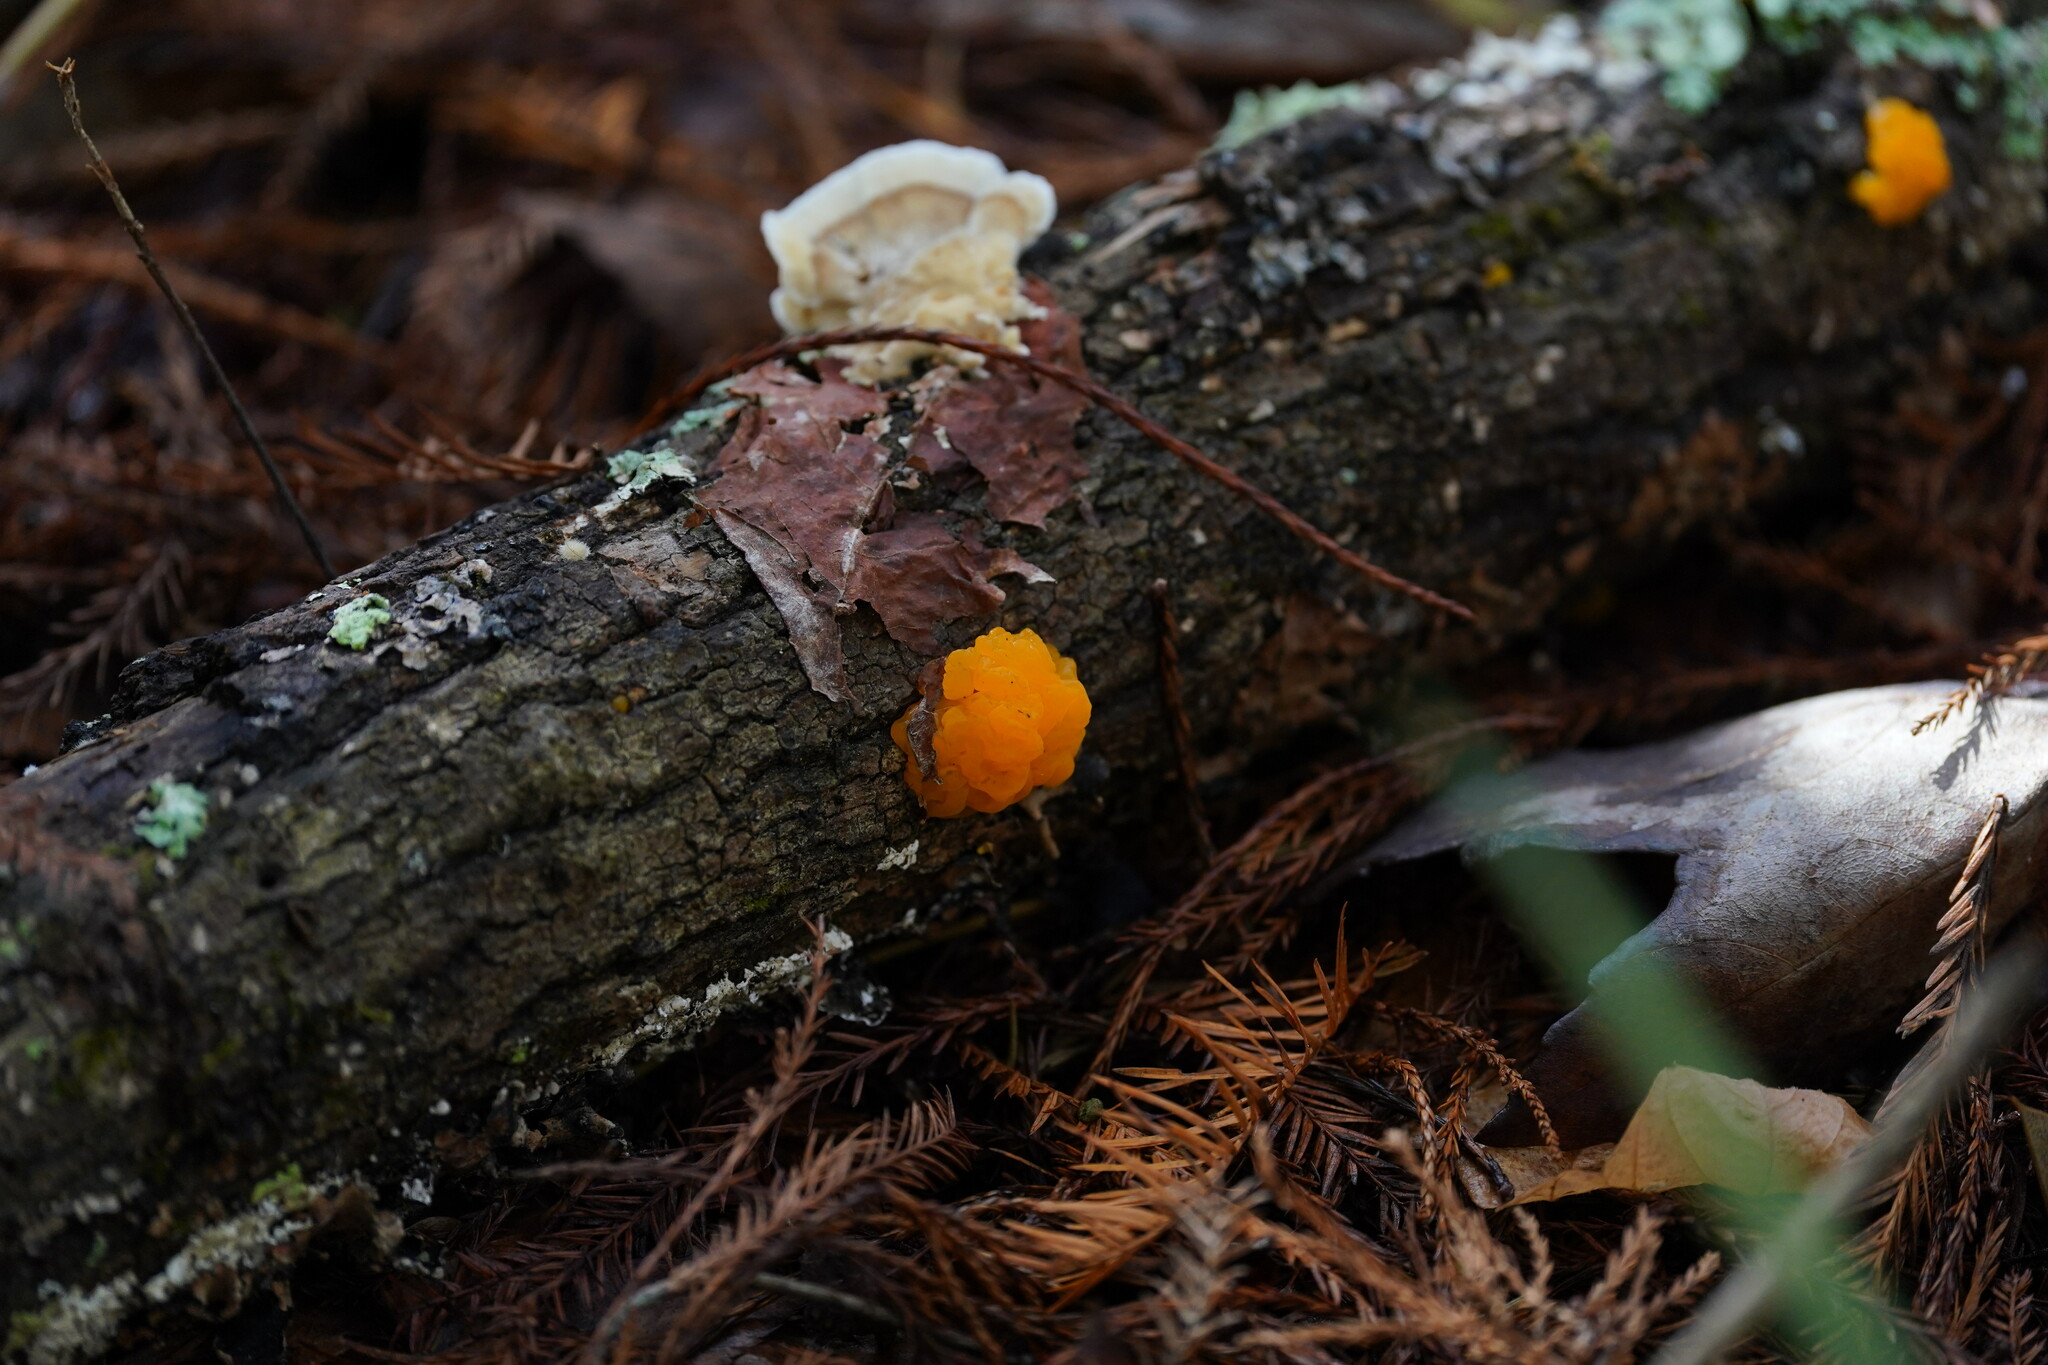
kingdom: Fungi
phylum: Basidiomycota
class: Dacrymycetes
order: Dacrymycetales
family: Dacrymycetaceae
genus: Dacrymyces
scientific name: Dacrymyces chrysospermus
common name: Orange jelly spot
